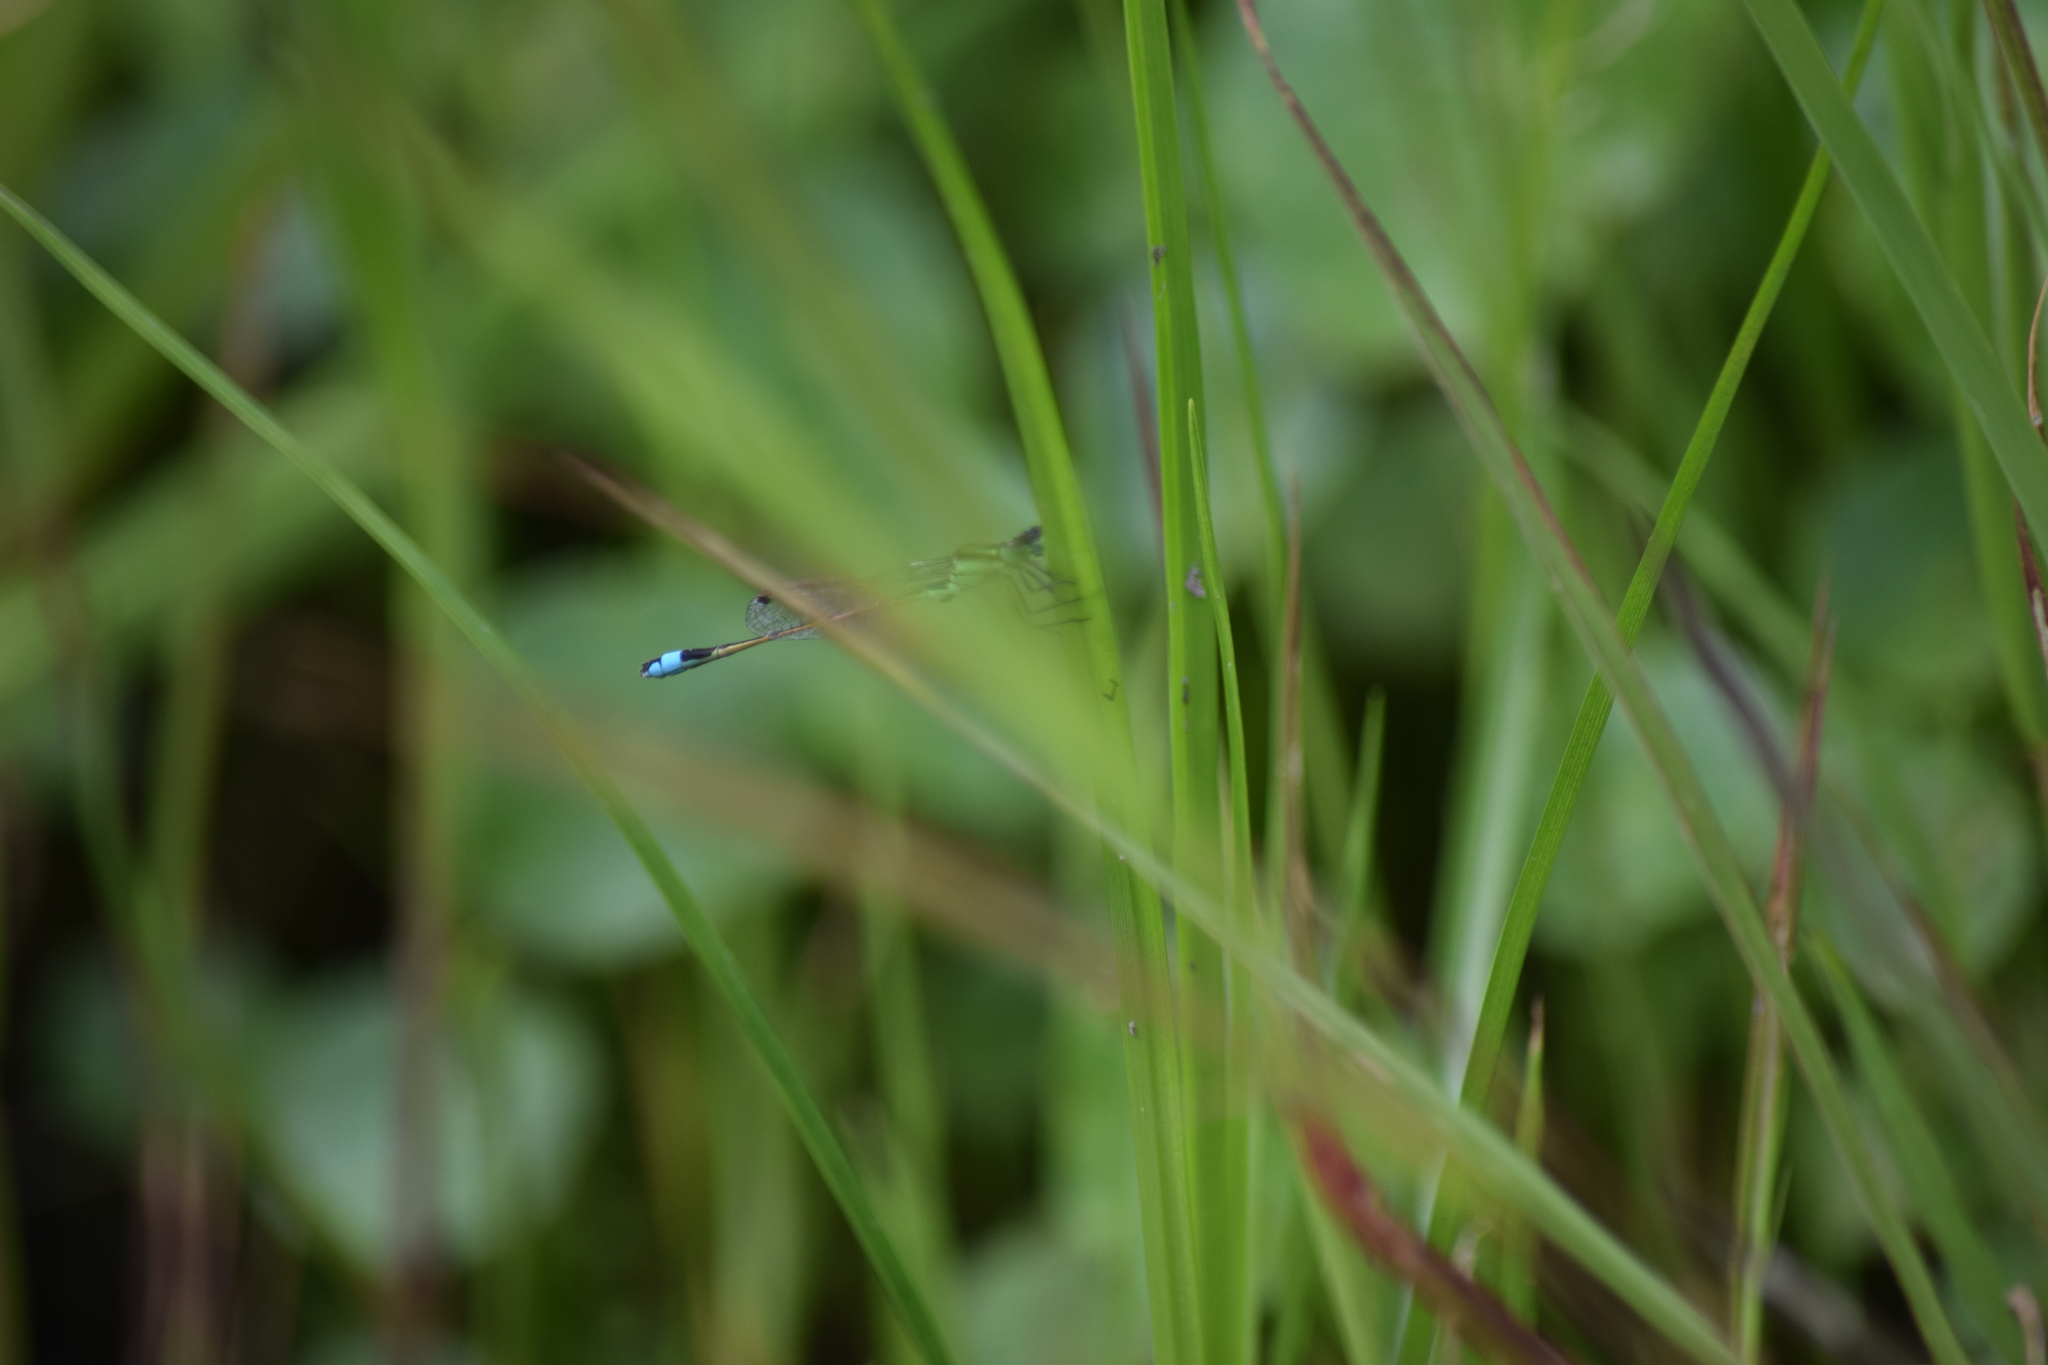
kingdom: Animalia
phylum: Arthropoda
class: Insecta
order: Odonata
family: Coenagrionidae
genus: Ischnura
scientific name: Ischnura ramburii
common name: Rambur's forktail
